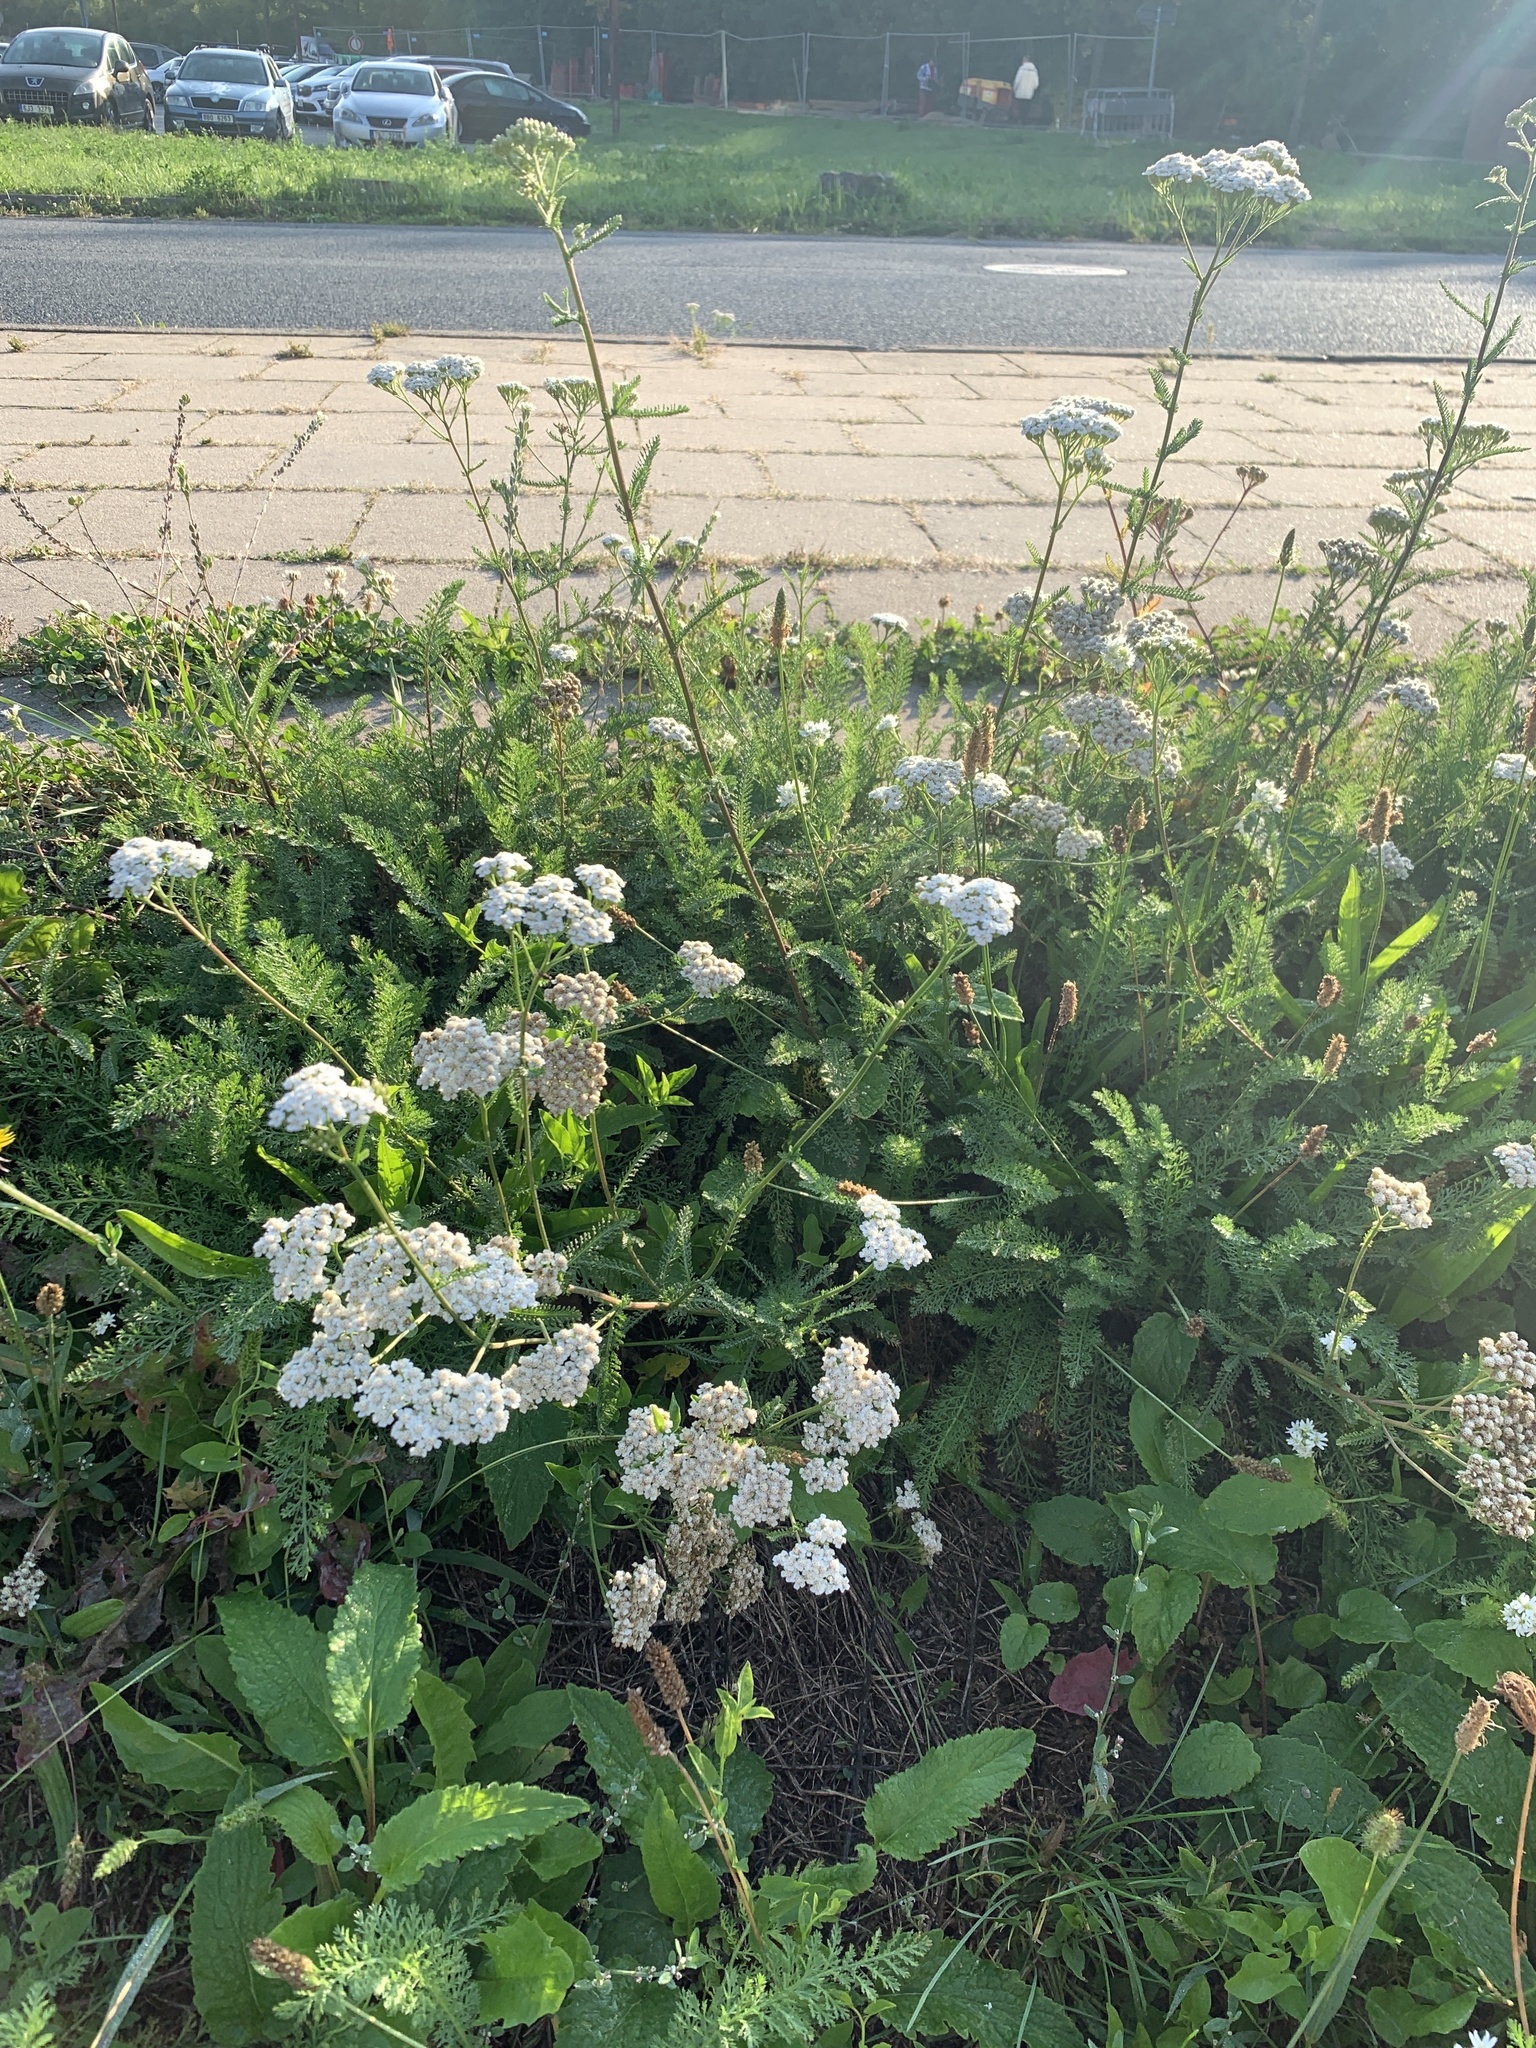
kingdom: Plantae
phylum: Tracheophyta
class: Magnoliopsida
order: Asterales
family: Asteraceae
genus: Achillea
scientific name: Achillea millefolium
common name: Yarrow
